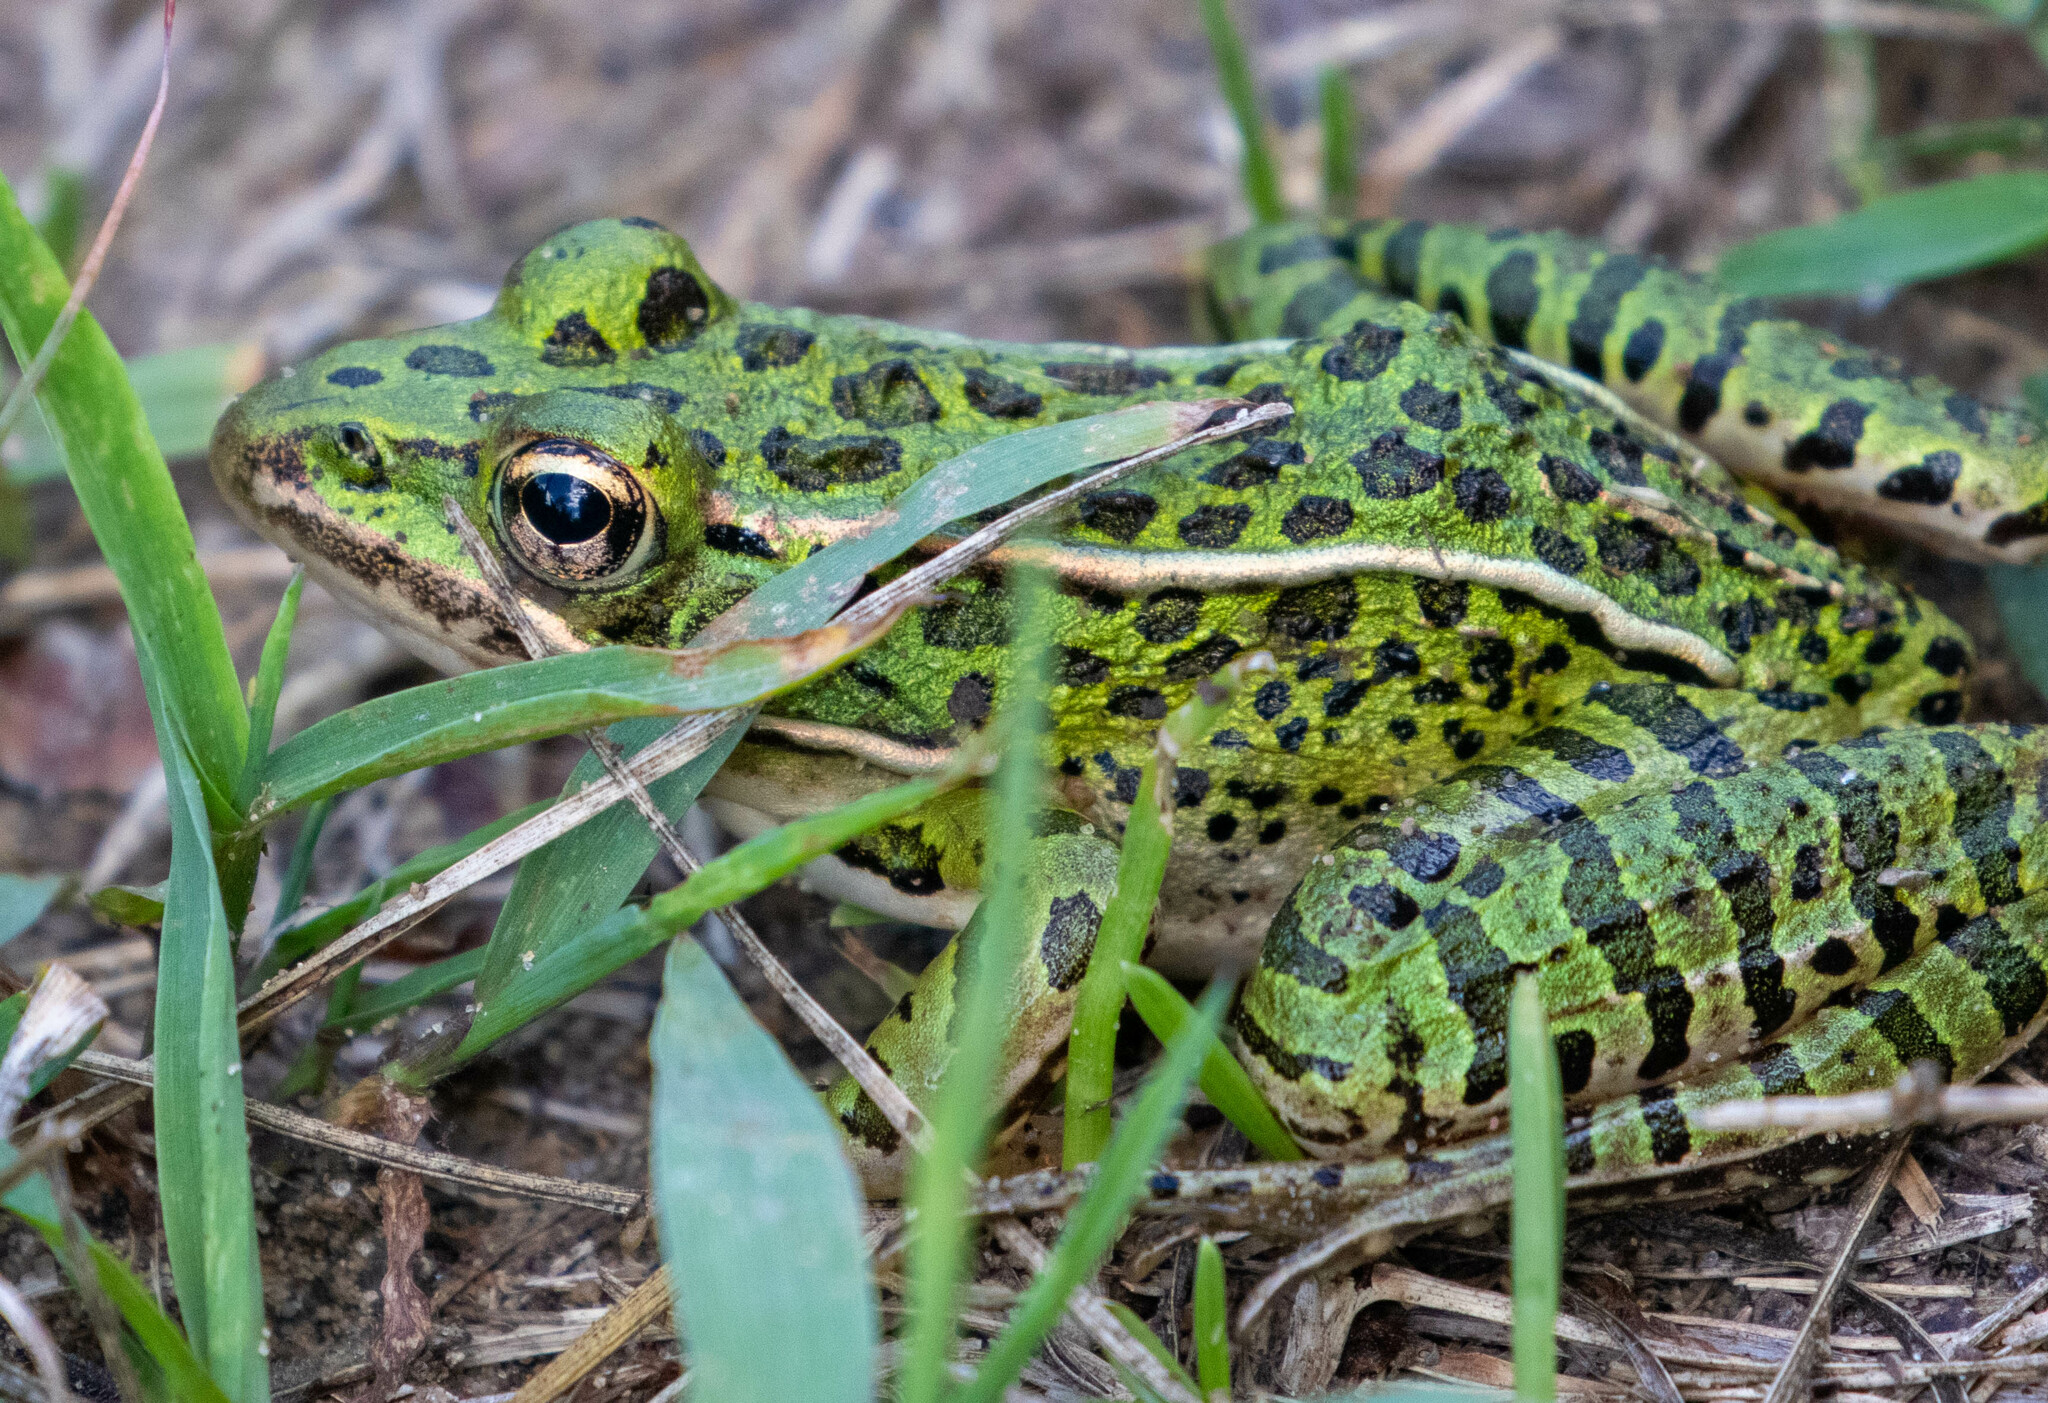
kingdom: Animalia
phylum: Chordata
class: Amphibia
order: Anura
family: Ranidae
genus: Lithobates
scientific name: Lithobates pipiens
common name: Northern leopard frog
